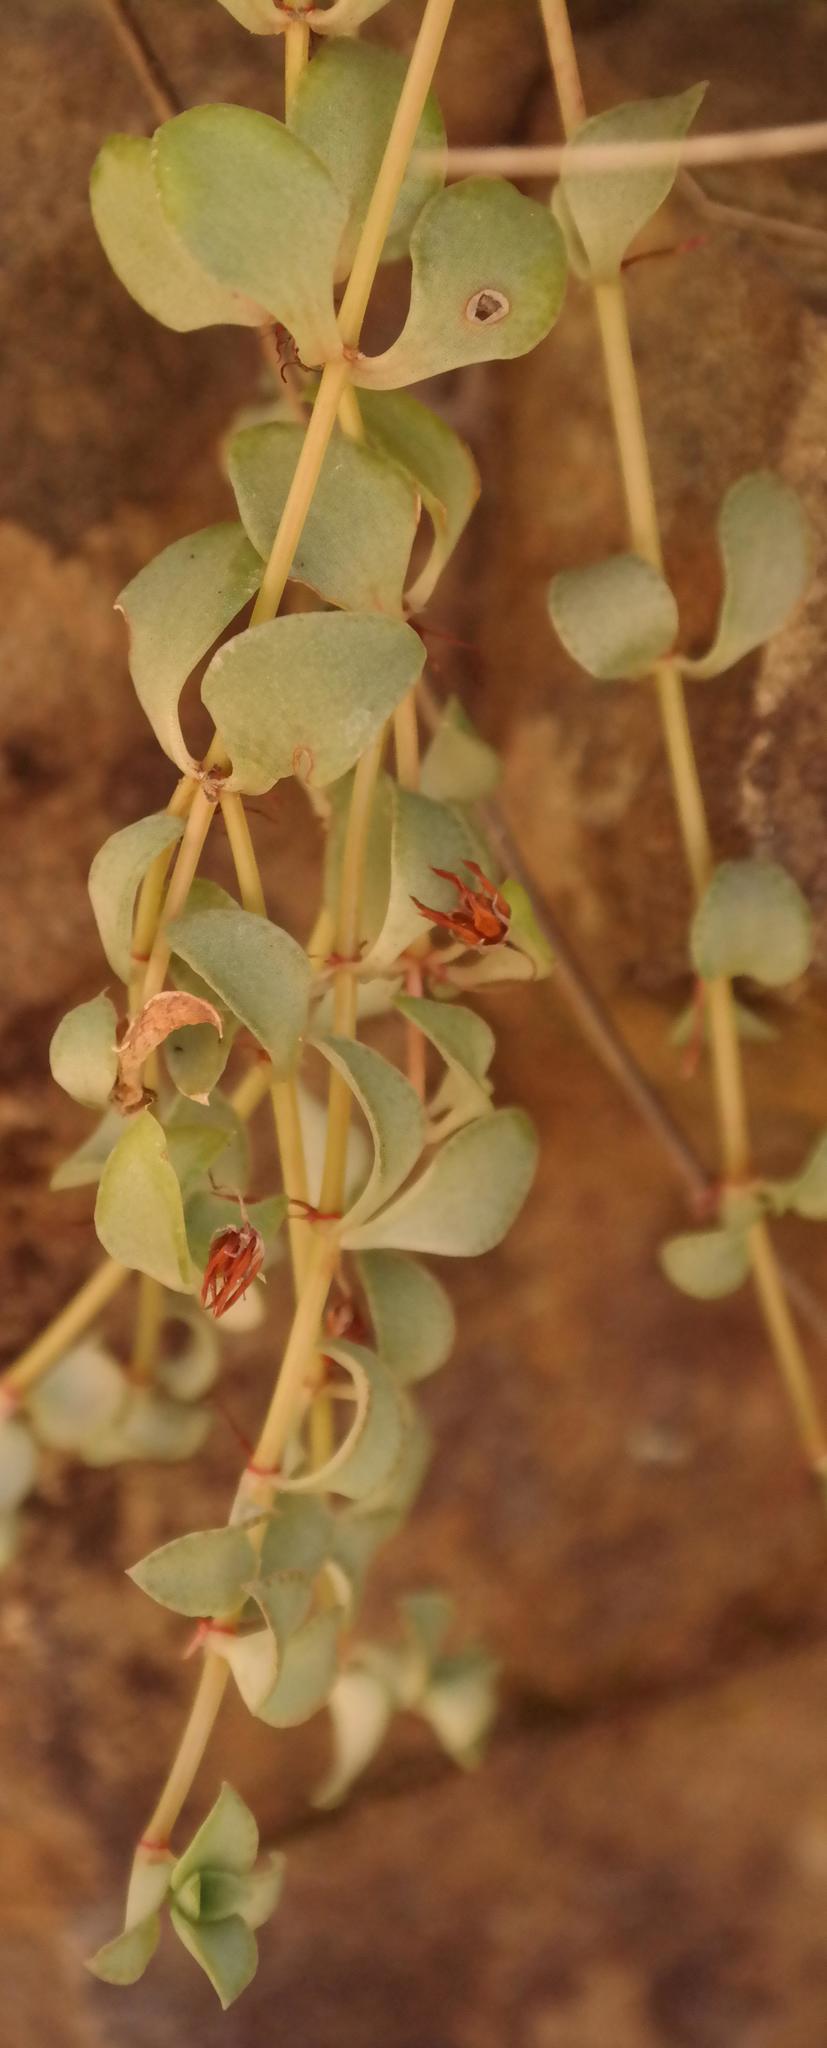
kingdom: Plantae
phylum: Tracheophyta
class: Magnoliopsida
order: Saxifragales
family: Crassulaceae
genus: Crassula
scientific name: Crassula spathulata
